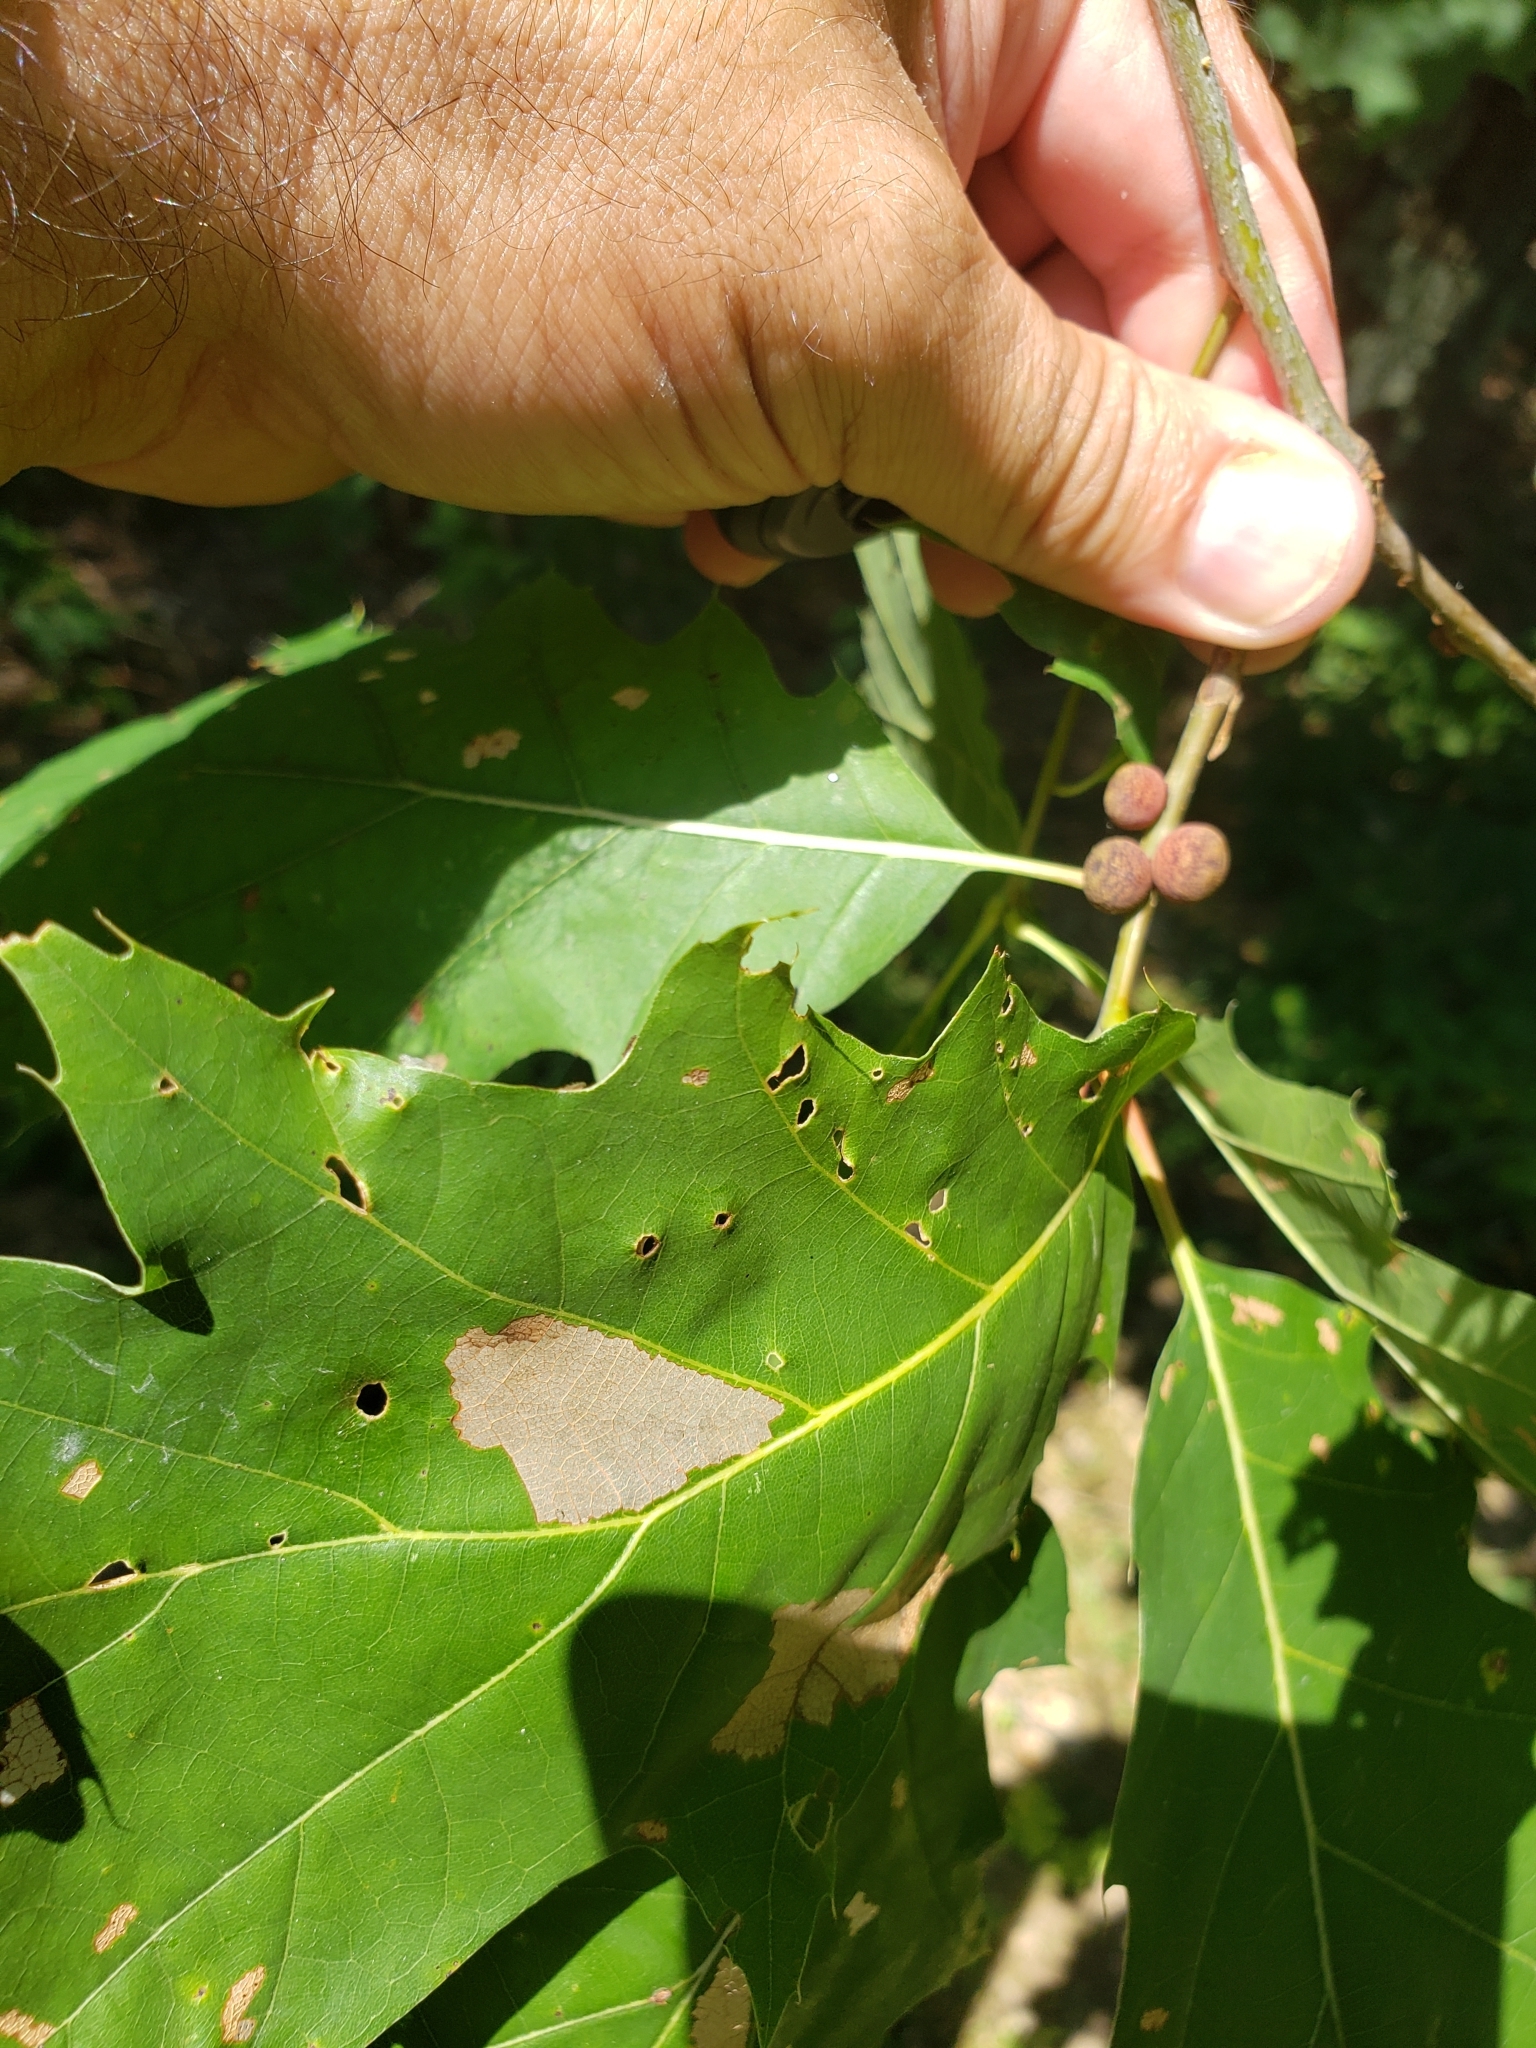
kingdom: Animalia
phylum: Arthropoda
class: Insecta
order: Hymenoptera
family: Cynipidae
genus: Kokkocynips
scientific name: Kokkocynips imbricariae
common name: Banded bullet gall wasp
